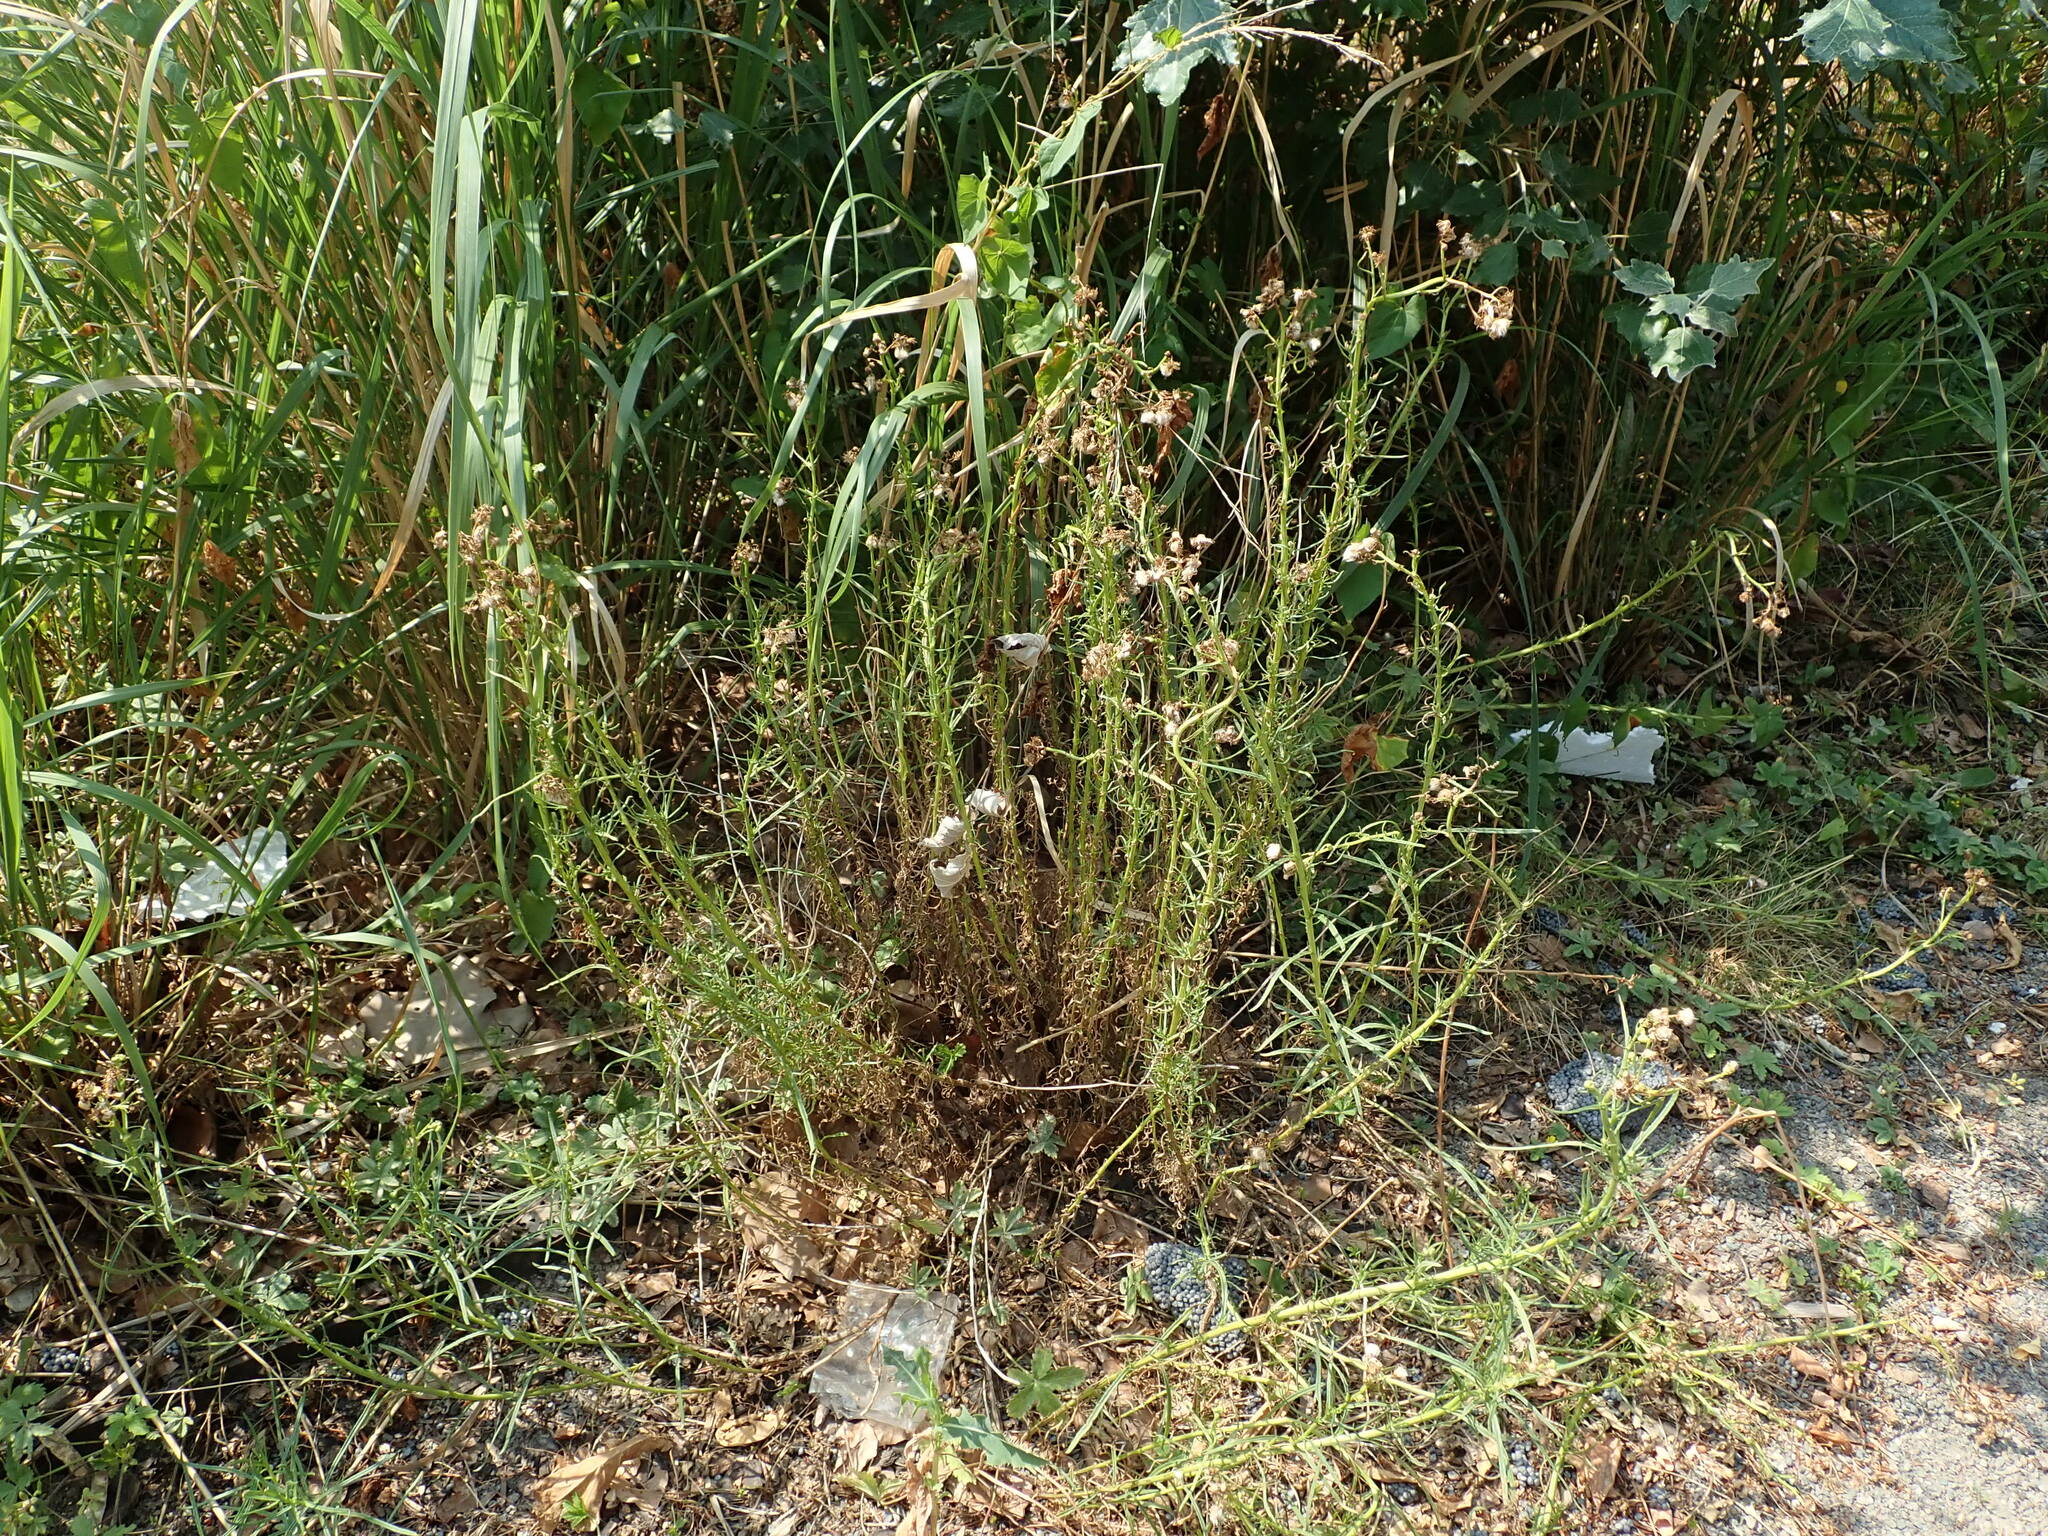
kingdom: Plantae
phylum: Tracheophyta
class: Magnoliopsida
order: Asterales
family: Asteraceae
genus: Senecio
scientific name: Senecio inaequidens
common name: Narrow-leaved ragwort
